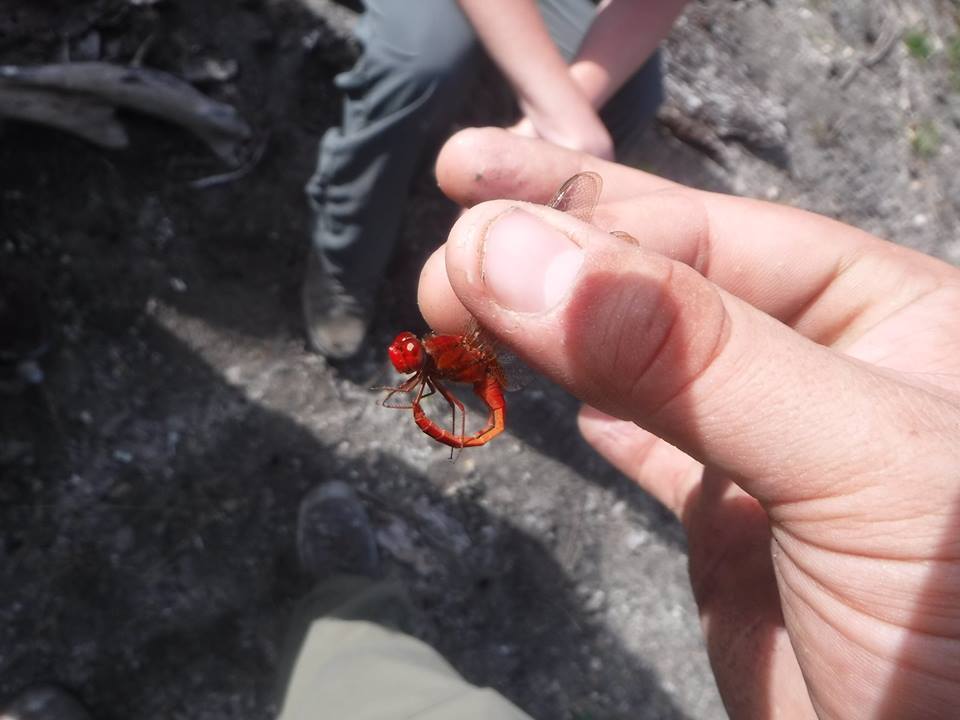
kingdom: Animalia
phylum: Arthropoda
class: Insecta
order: Odonata
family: Libellulidae
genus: Crocothemis
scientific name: Crocothemis servilia
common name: Scarlet skimmer
